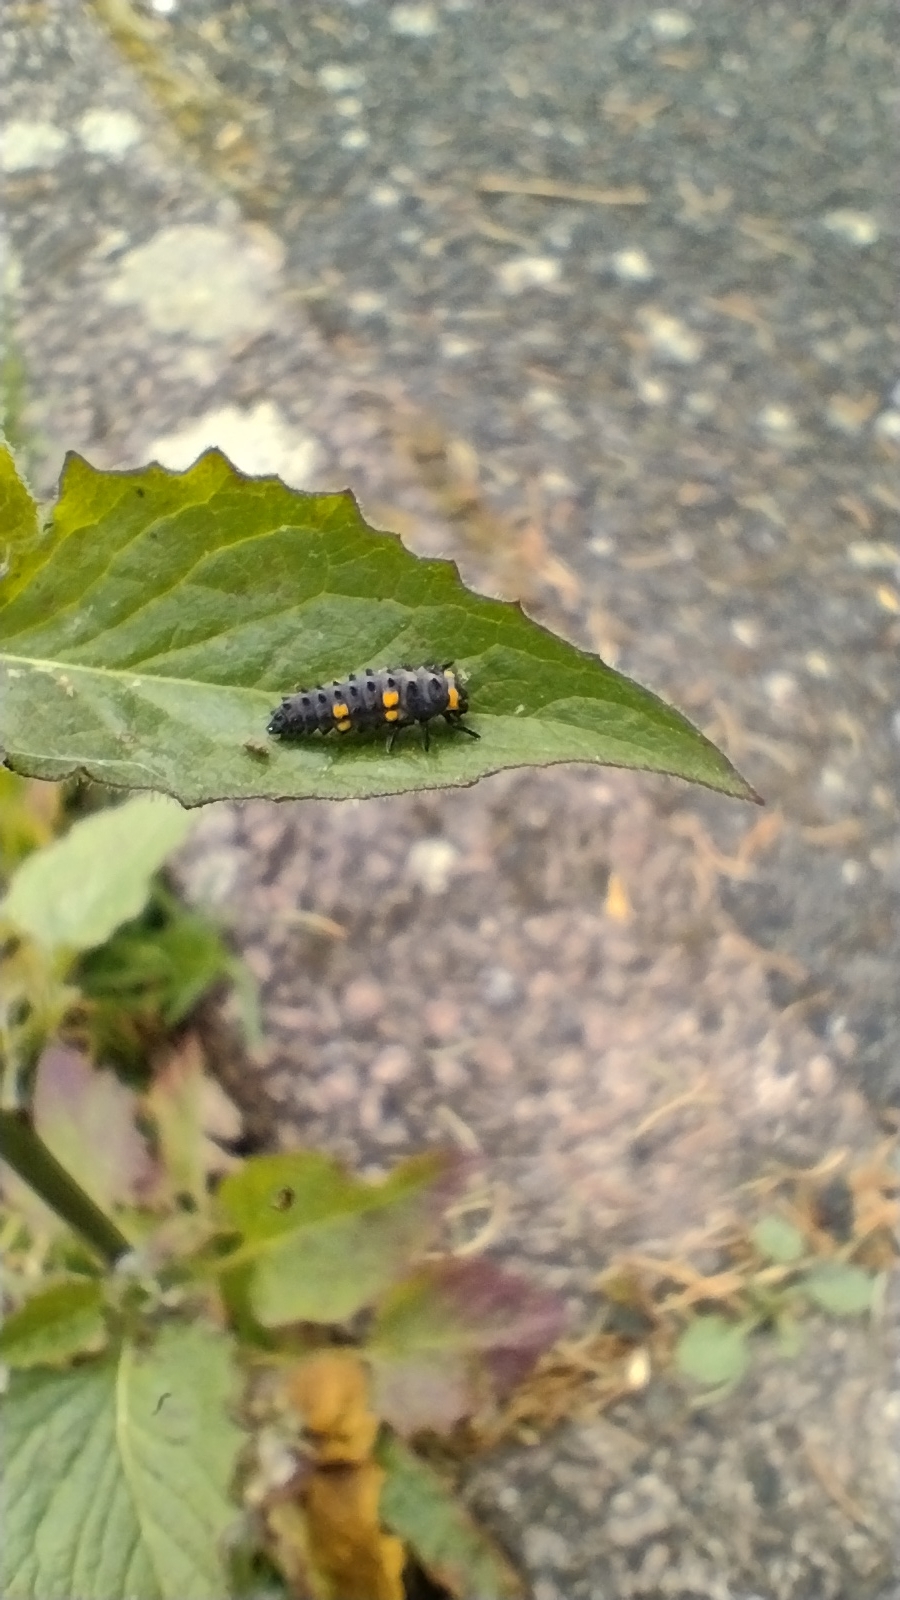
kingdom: Animalia
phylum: Arthropoda
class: Insecta
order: Coleoptera
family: Coccinellidae
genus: Coccinella
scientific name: Coccinella septempunctata
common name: Sevenspotted lady beetle
